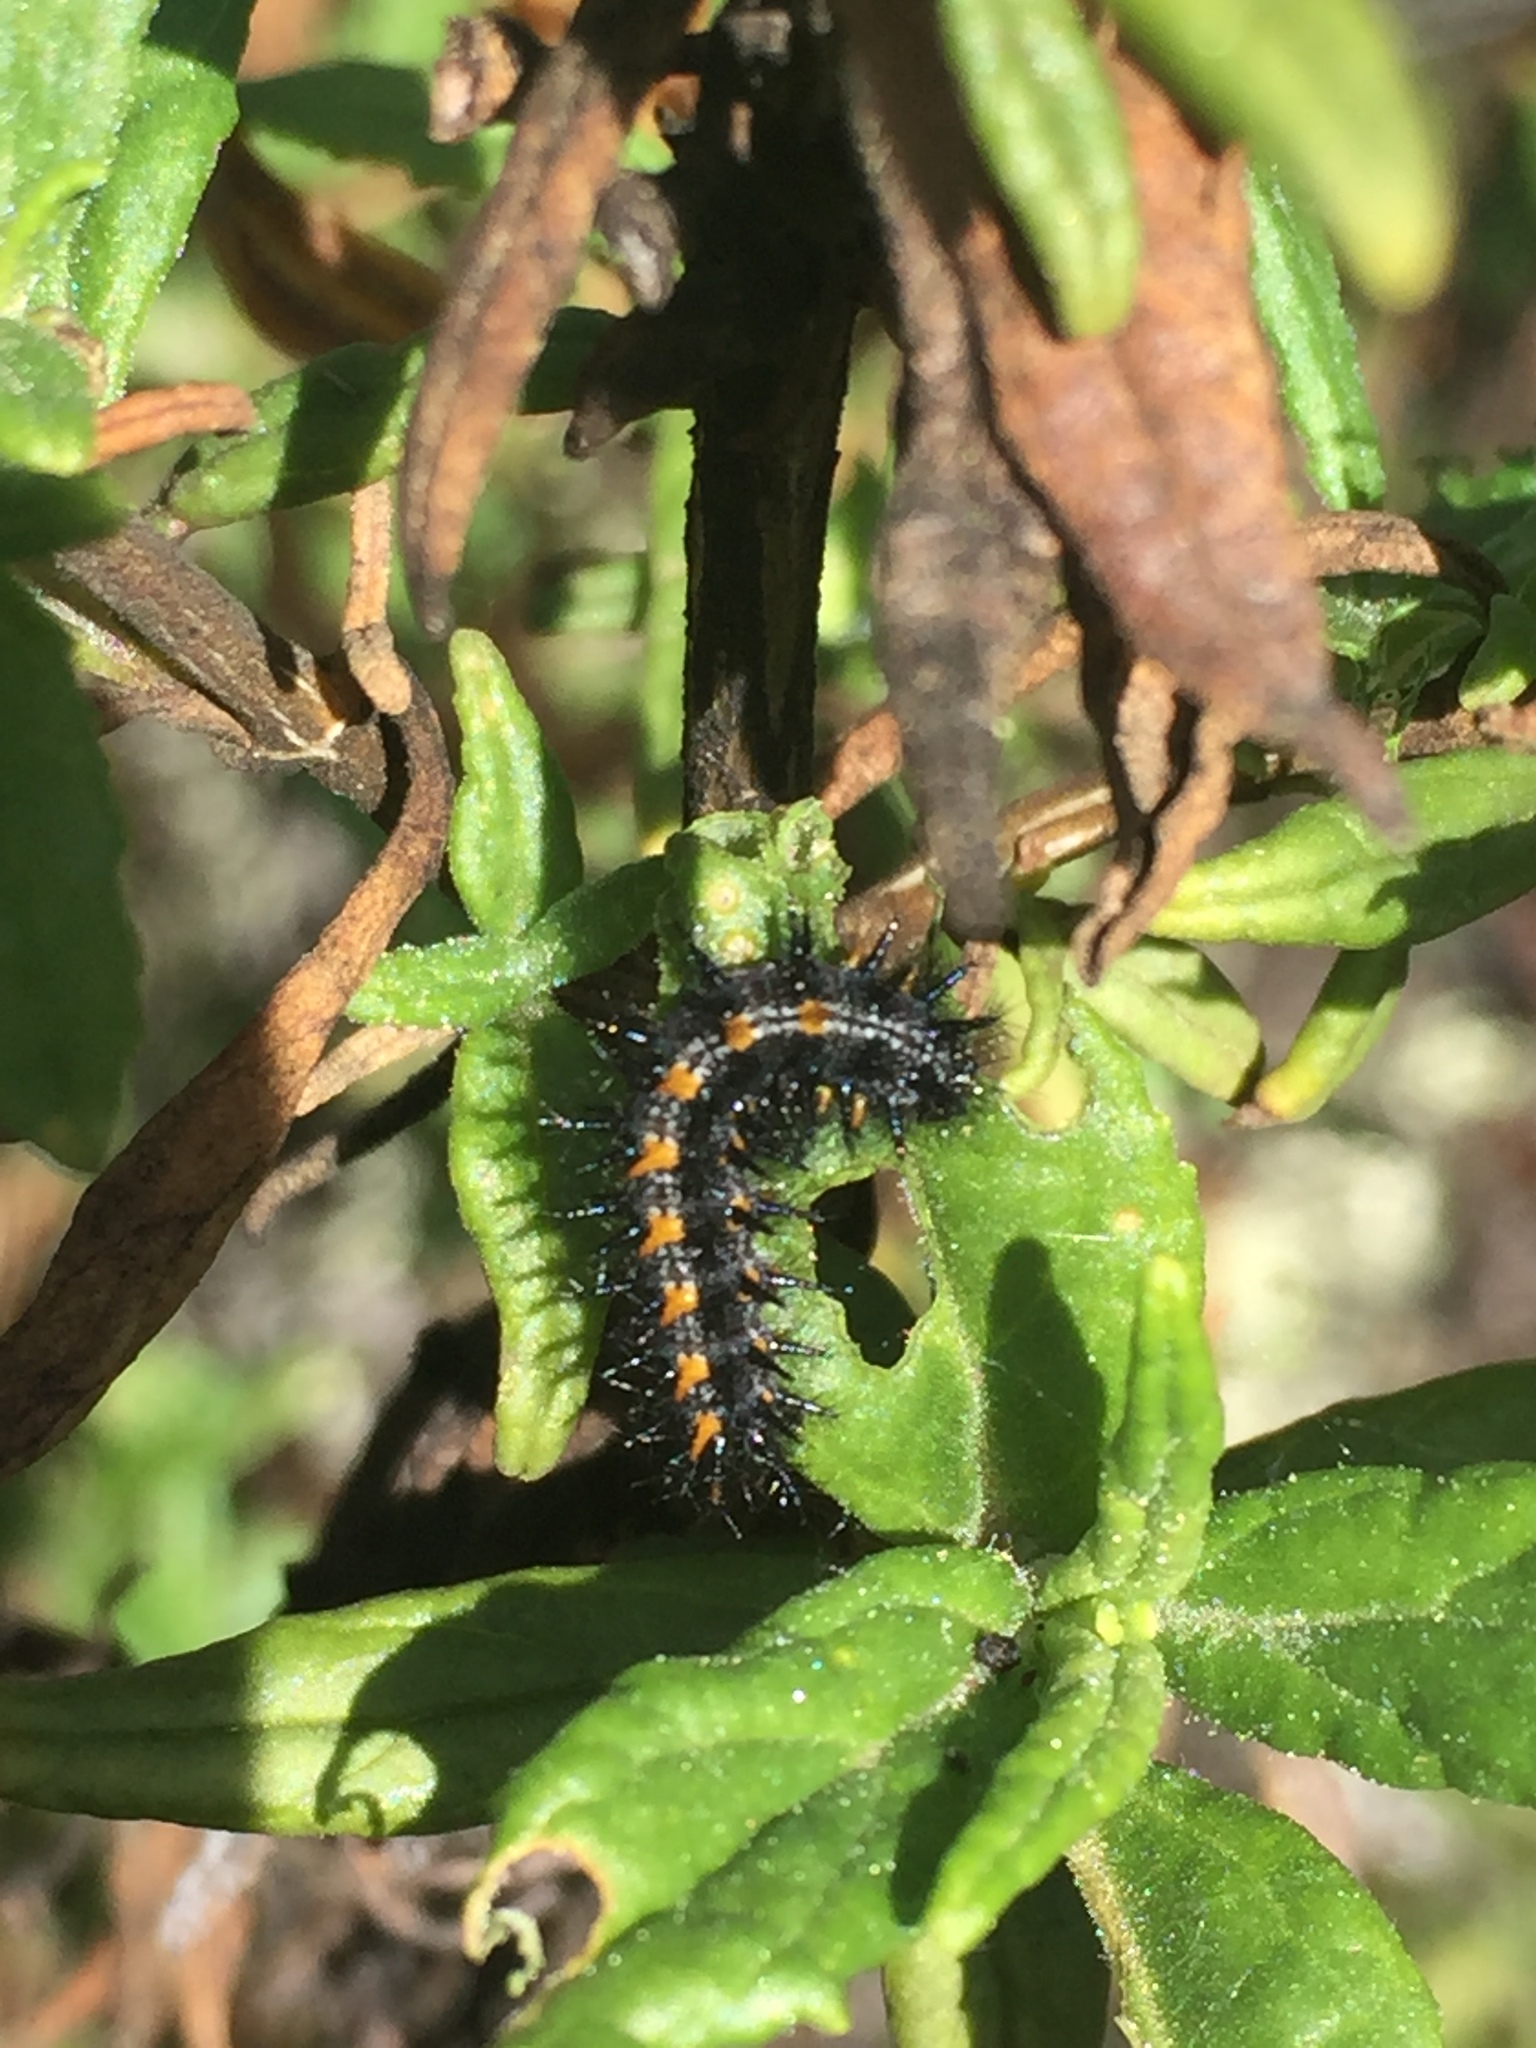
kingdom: Animalia
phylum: Arthropoda
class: Insecta
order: Lepidoptera
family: Nymphalidae
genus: Occidryas
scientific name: Occidryas chalcedona
